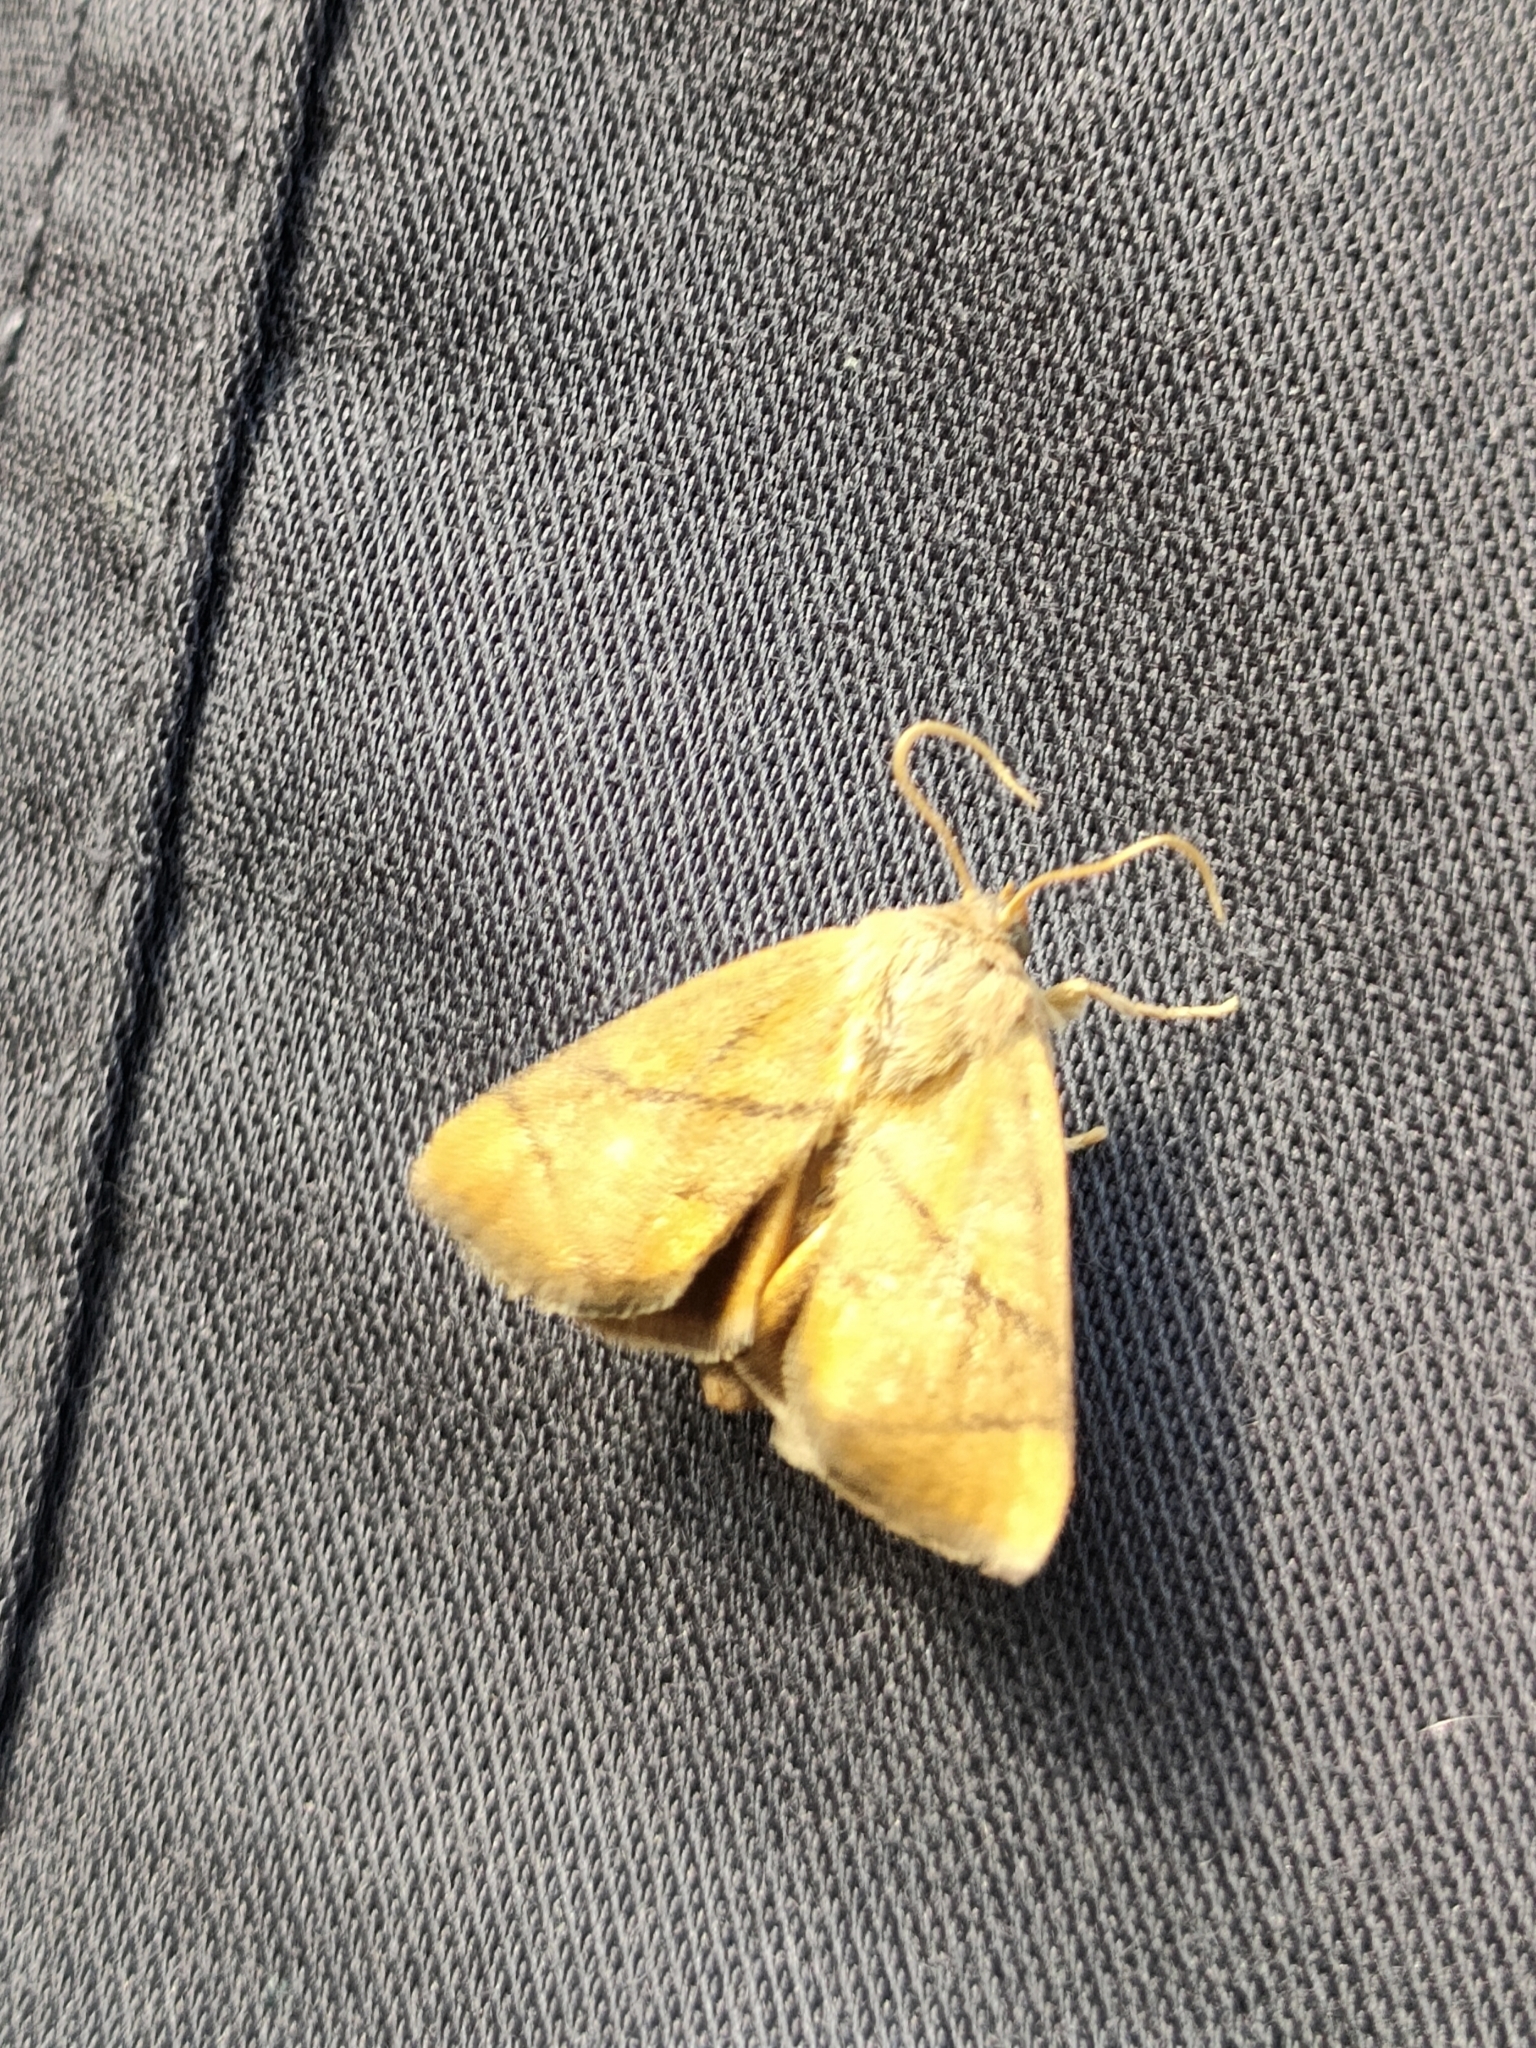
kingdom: Animalia
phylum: Arthropoda
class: Insecta
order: Lepidoptera
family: Limacodidae
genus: Apoda
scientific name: Apoda limacodes
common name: Festoon
